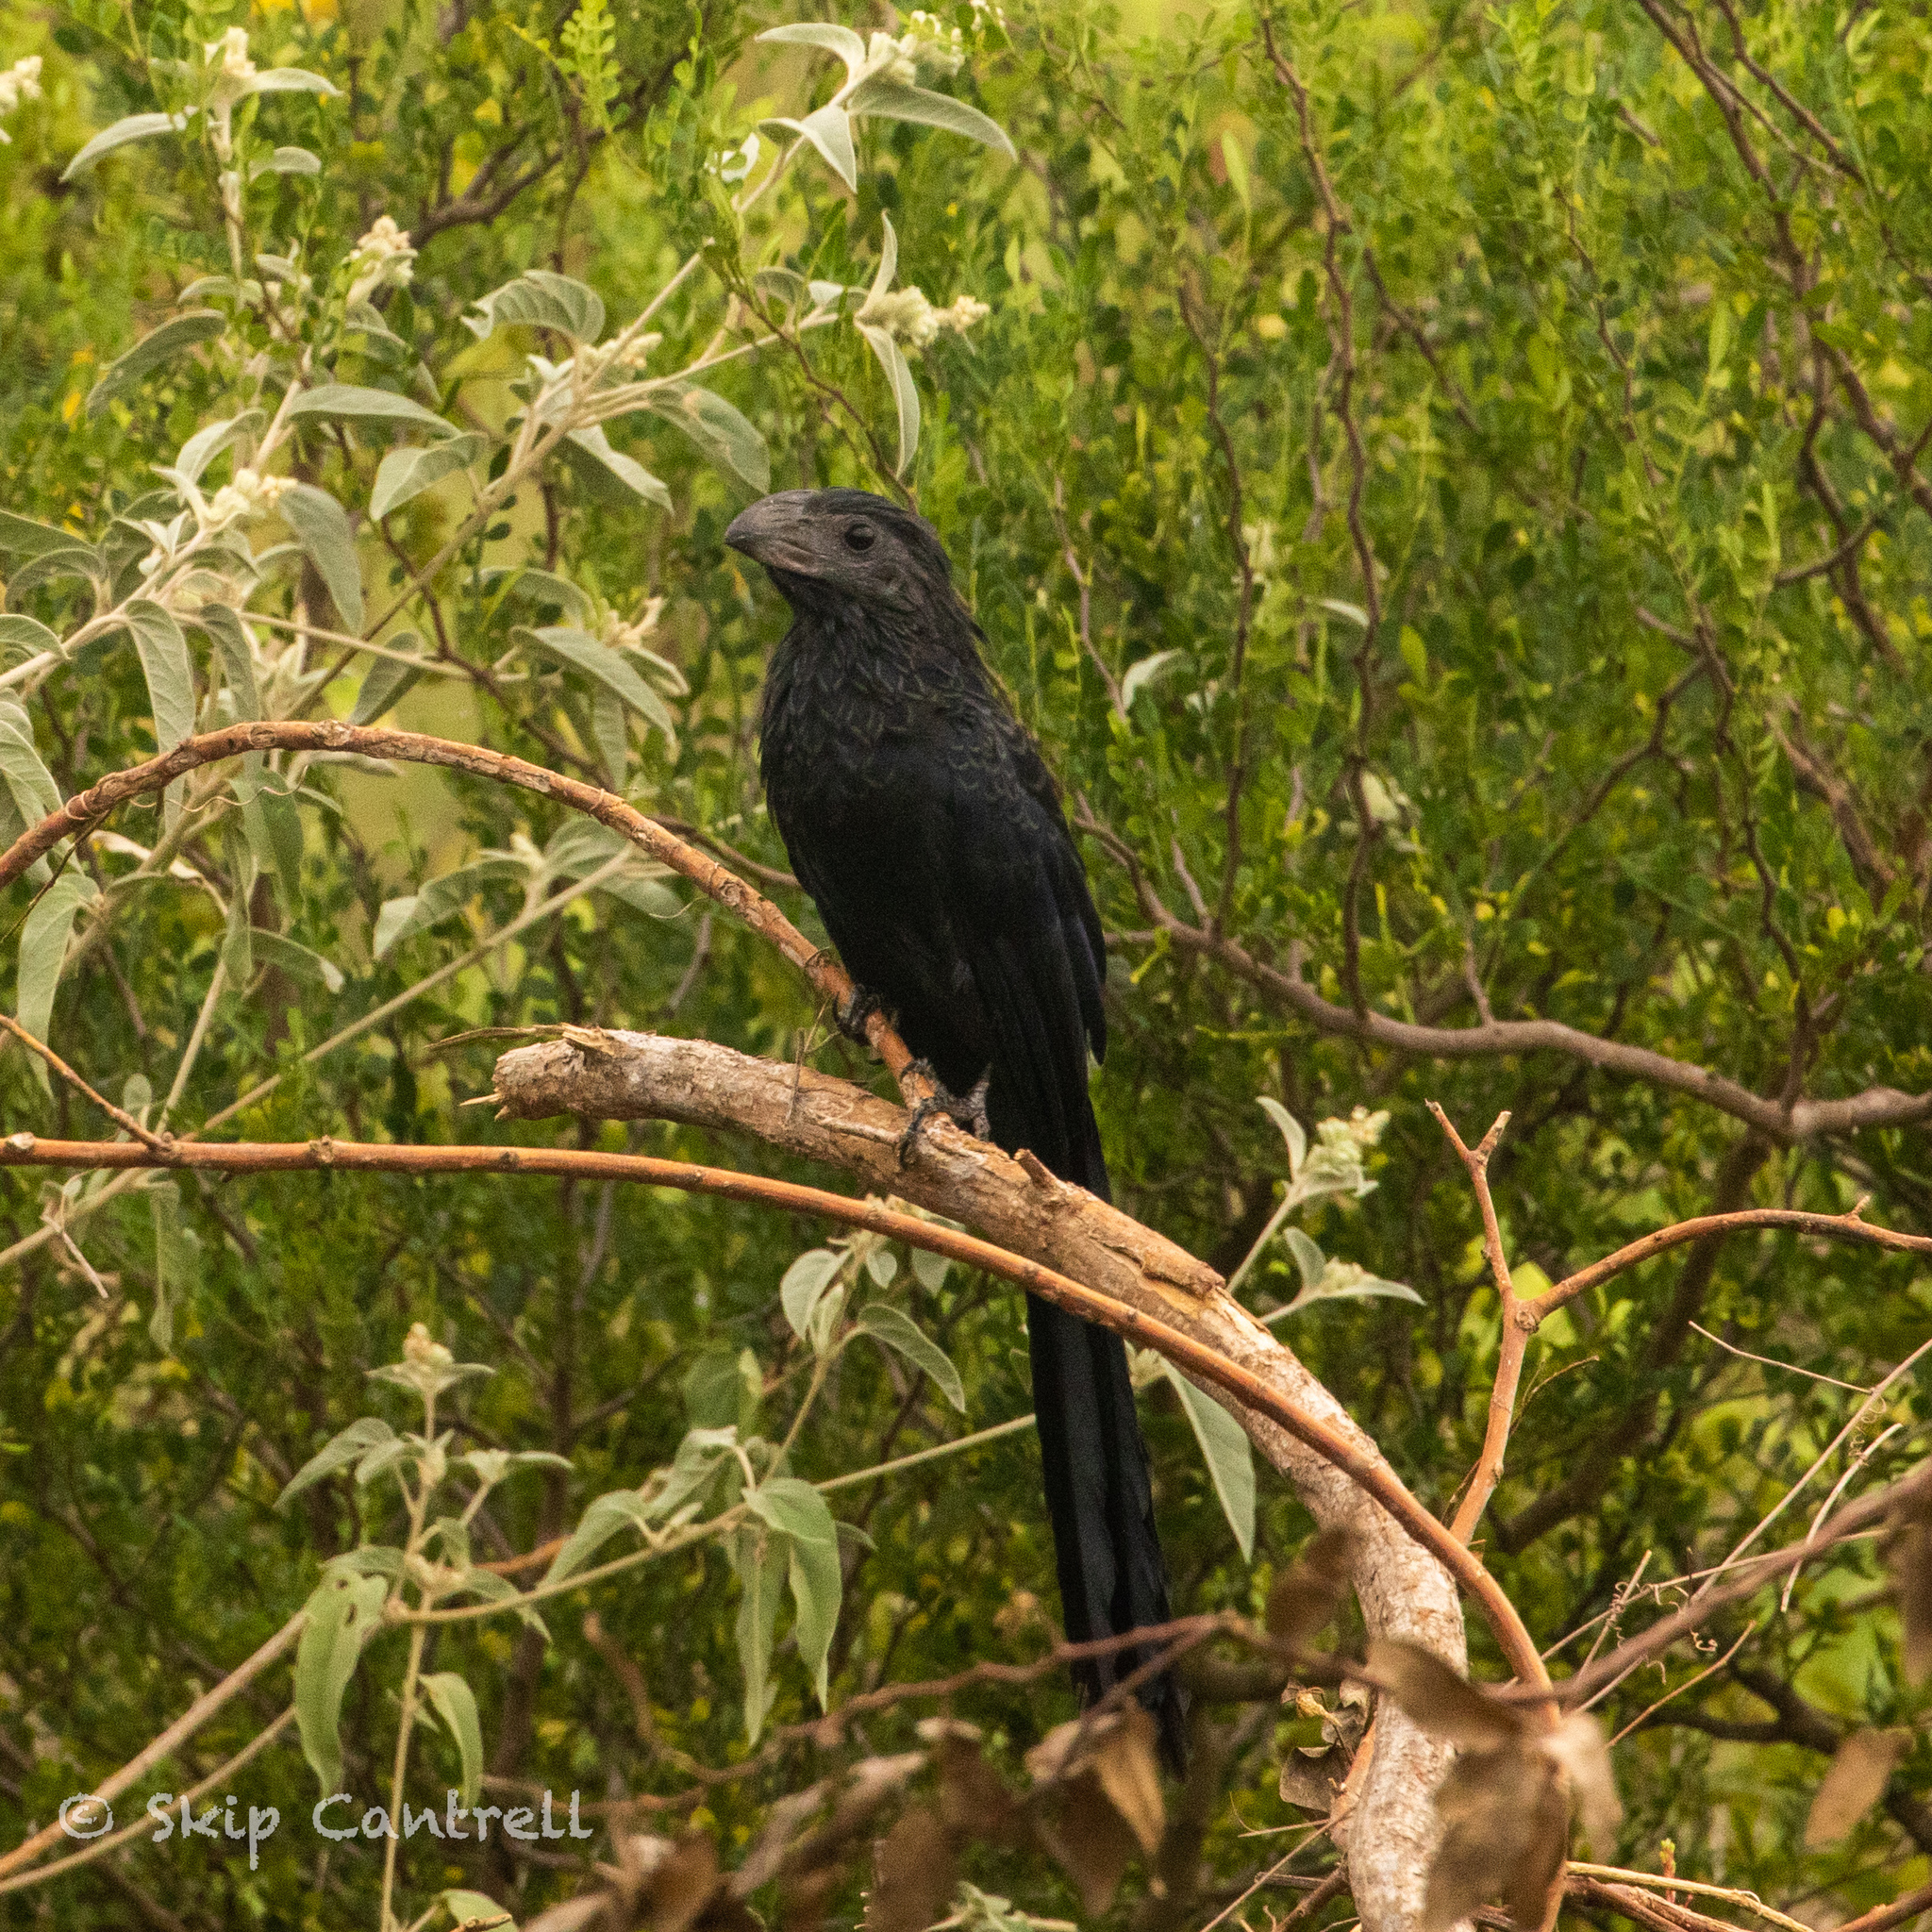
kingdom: Animalia
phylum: Chordata
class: Aves
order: Cuculiformes
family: Cuculidae
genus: Crotophaga
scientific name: Crotophaga sulcirostris
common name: Groove-billed ani
